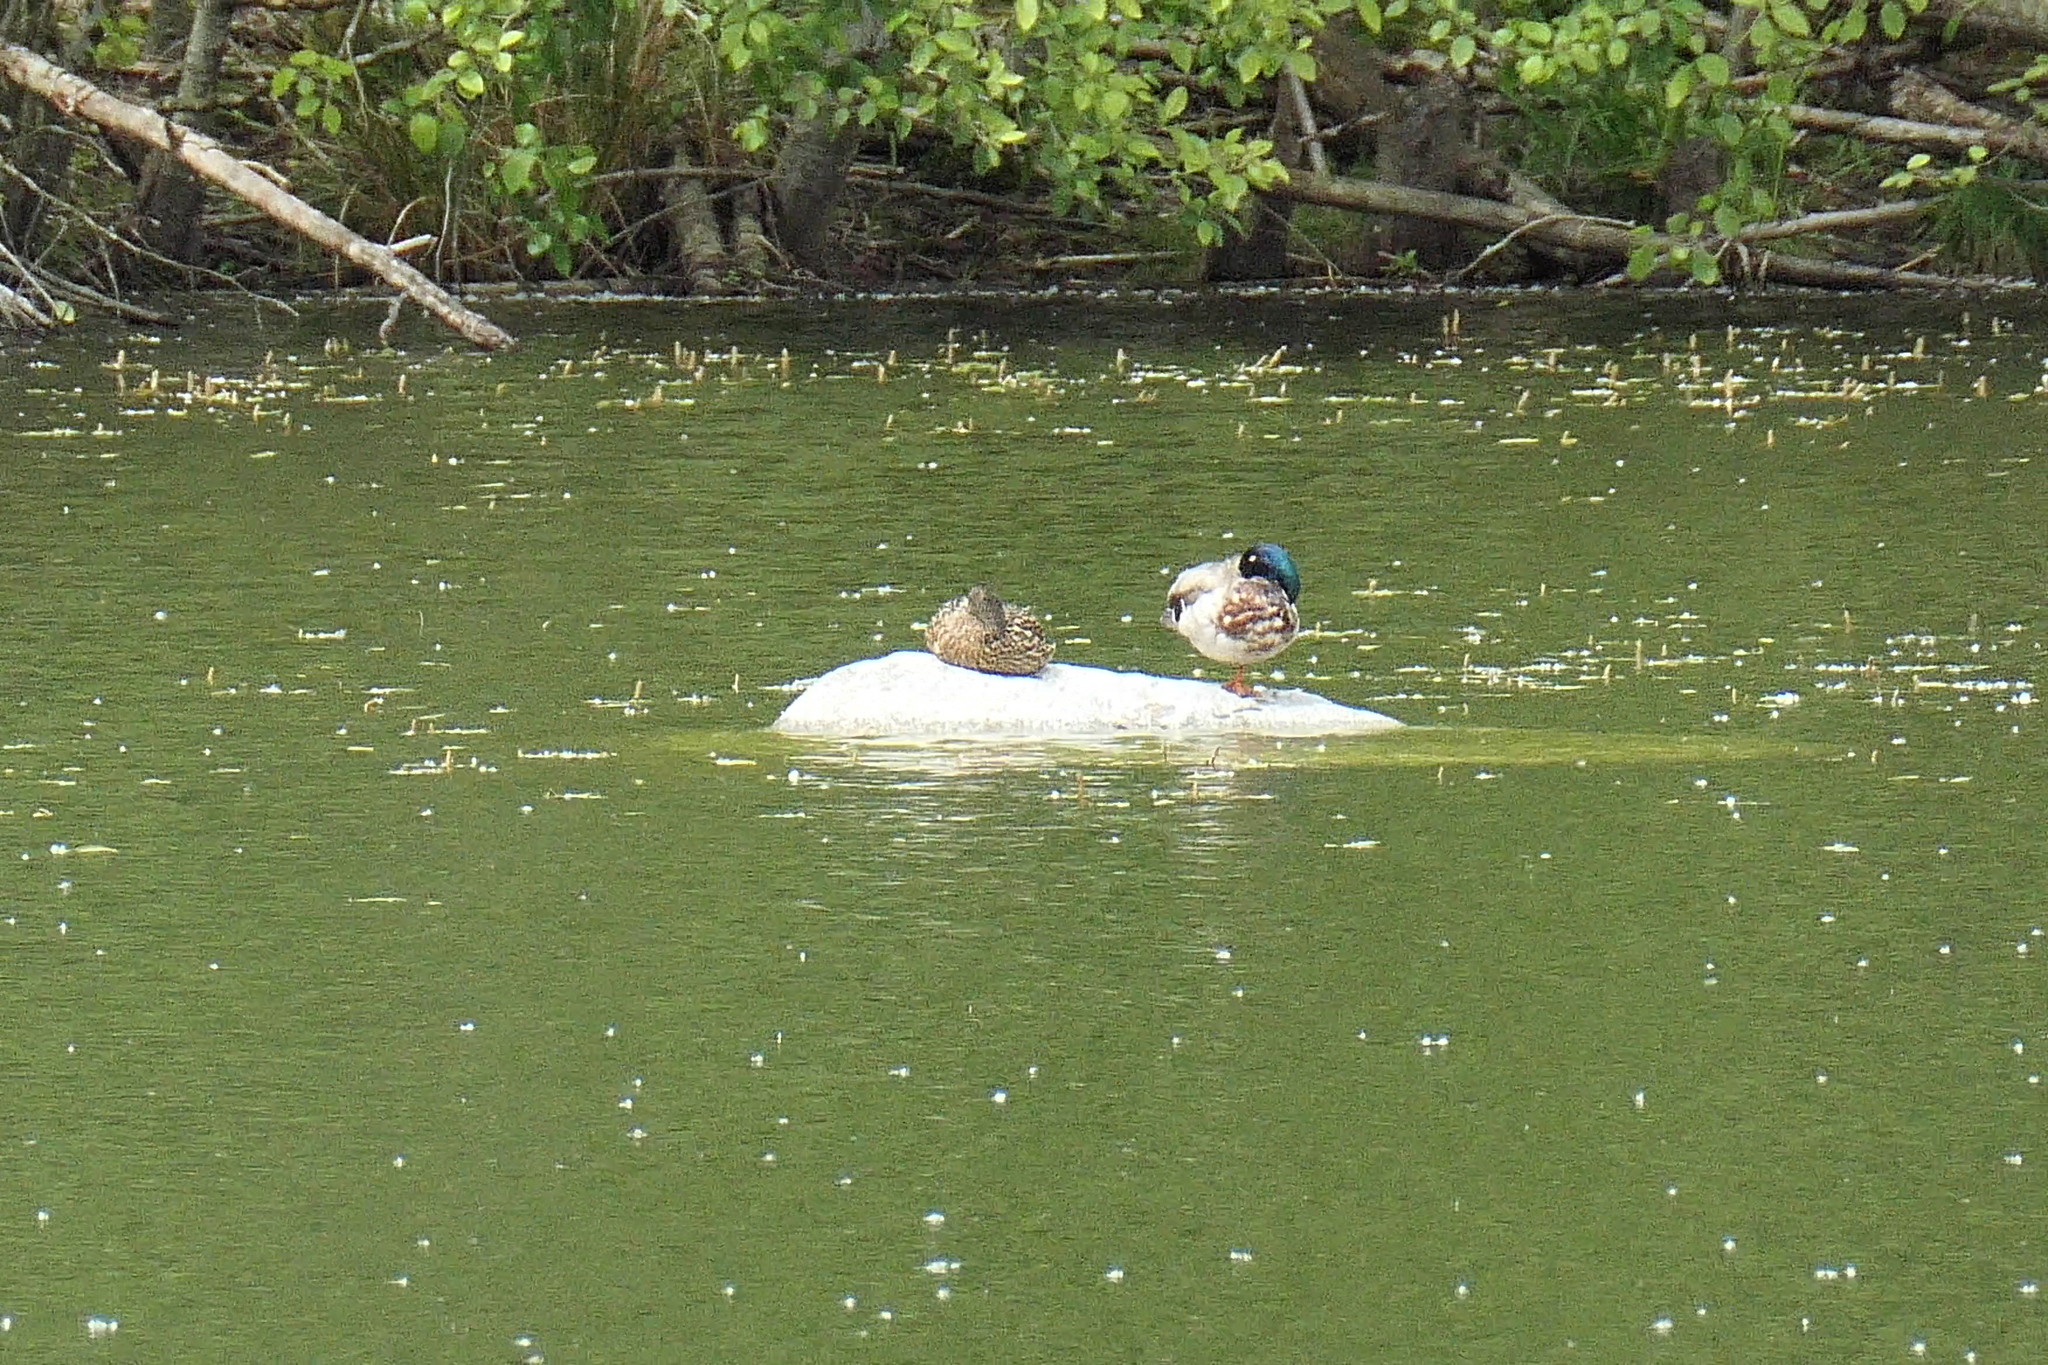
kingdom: Animalia
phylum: Chordata
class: Aves
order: Anseriformes
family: Anatidae
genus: Anas
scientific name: Anas platyrhynchos
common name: Mallard
